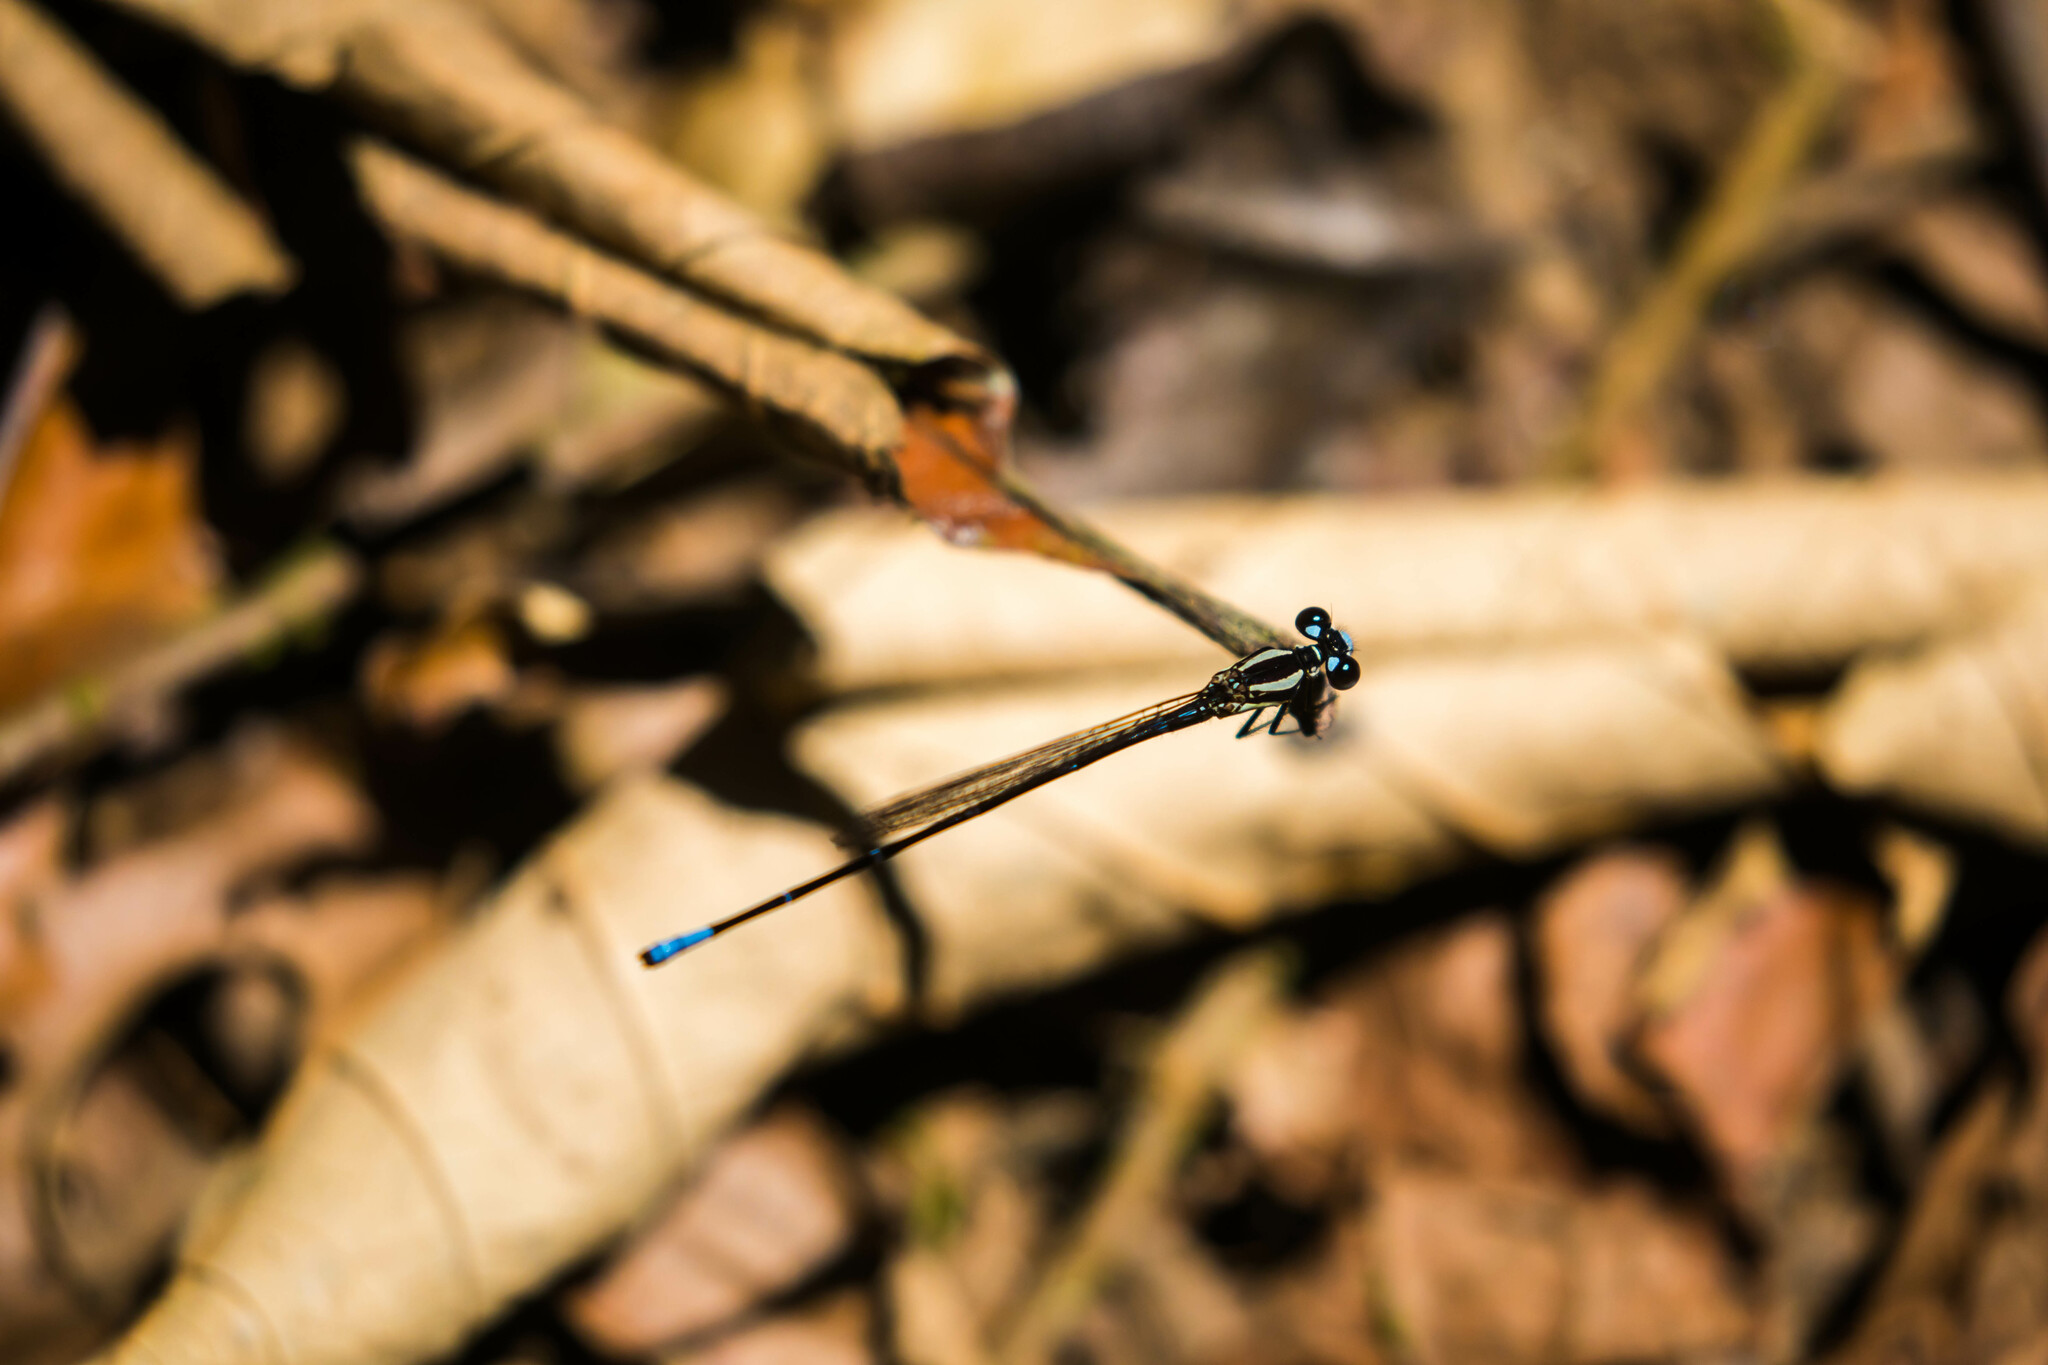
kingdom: Animalia
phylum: Arthropoda
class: Insecta
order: Odonata
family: Coenagrionidae
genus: Argia
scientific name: Argia oculata
